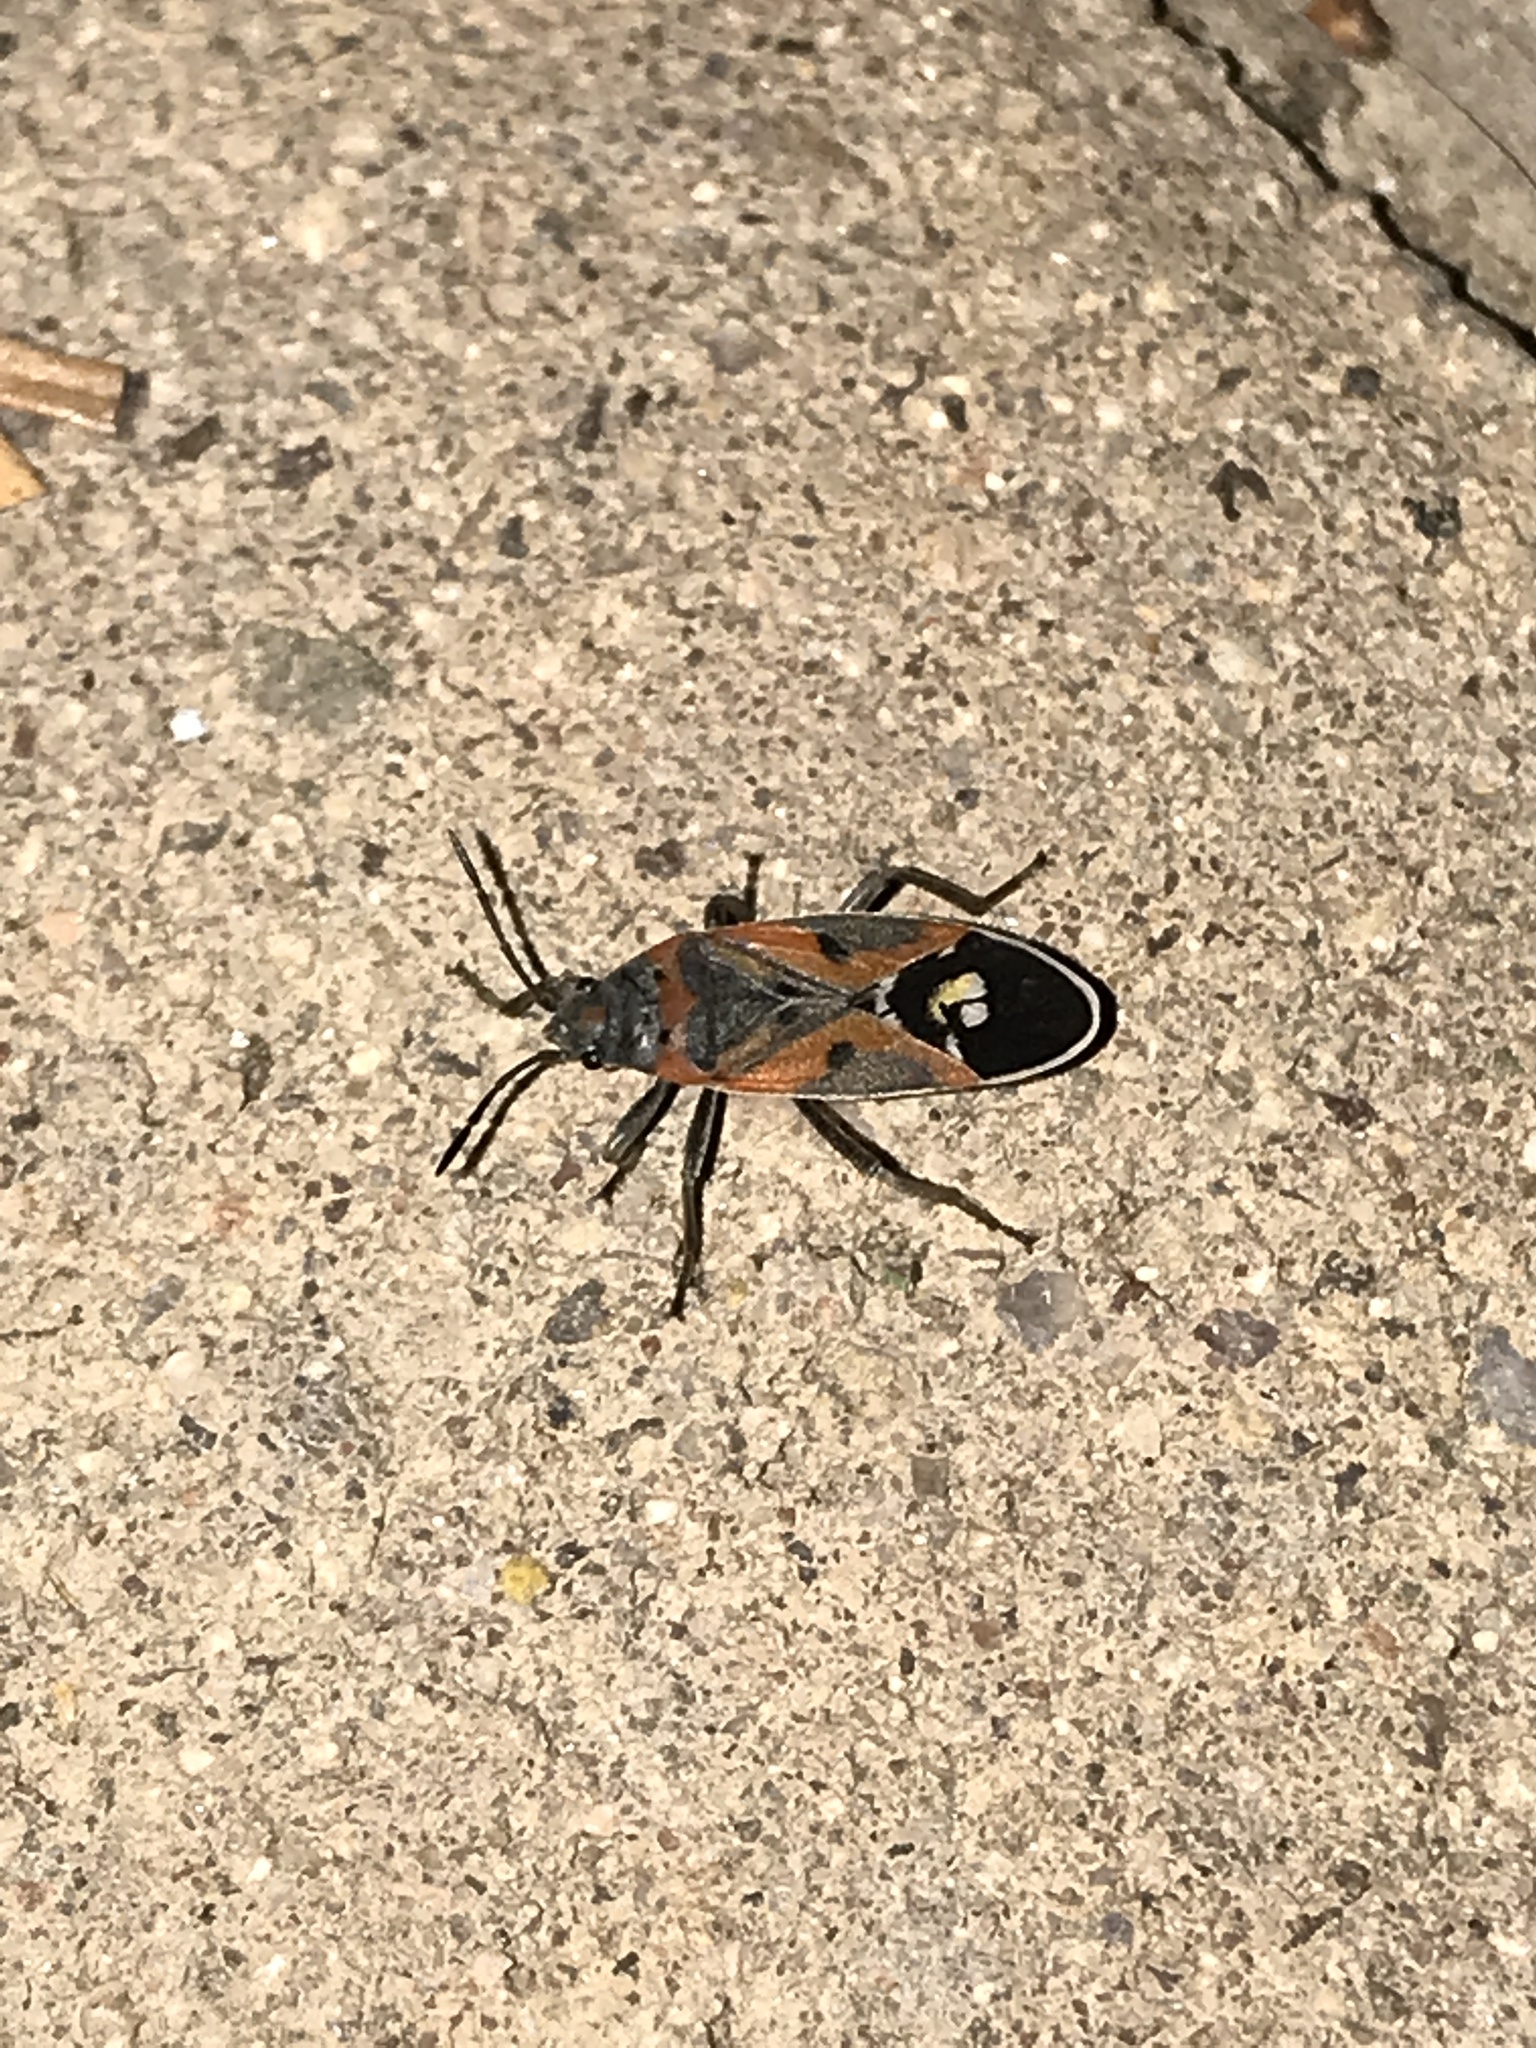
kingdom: Animalia
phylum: Arthropoda
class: Insecta
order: Hemiptera
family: Lygaeidae
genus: Lygaeus
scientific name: Lygaeus reclivatus
